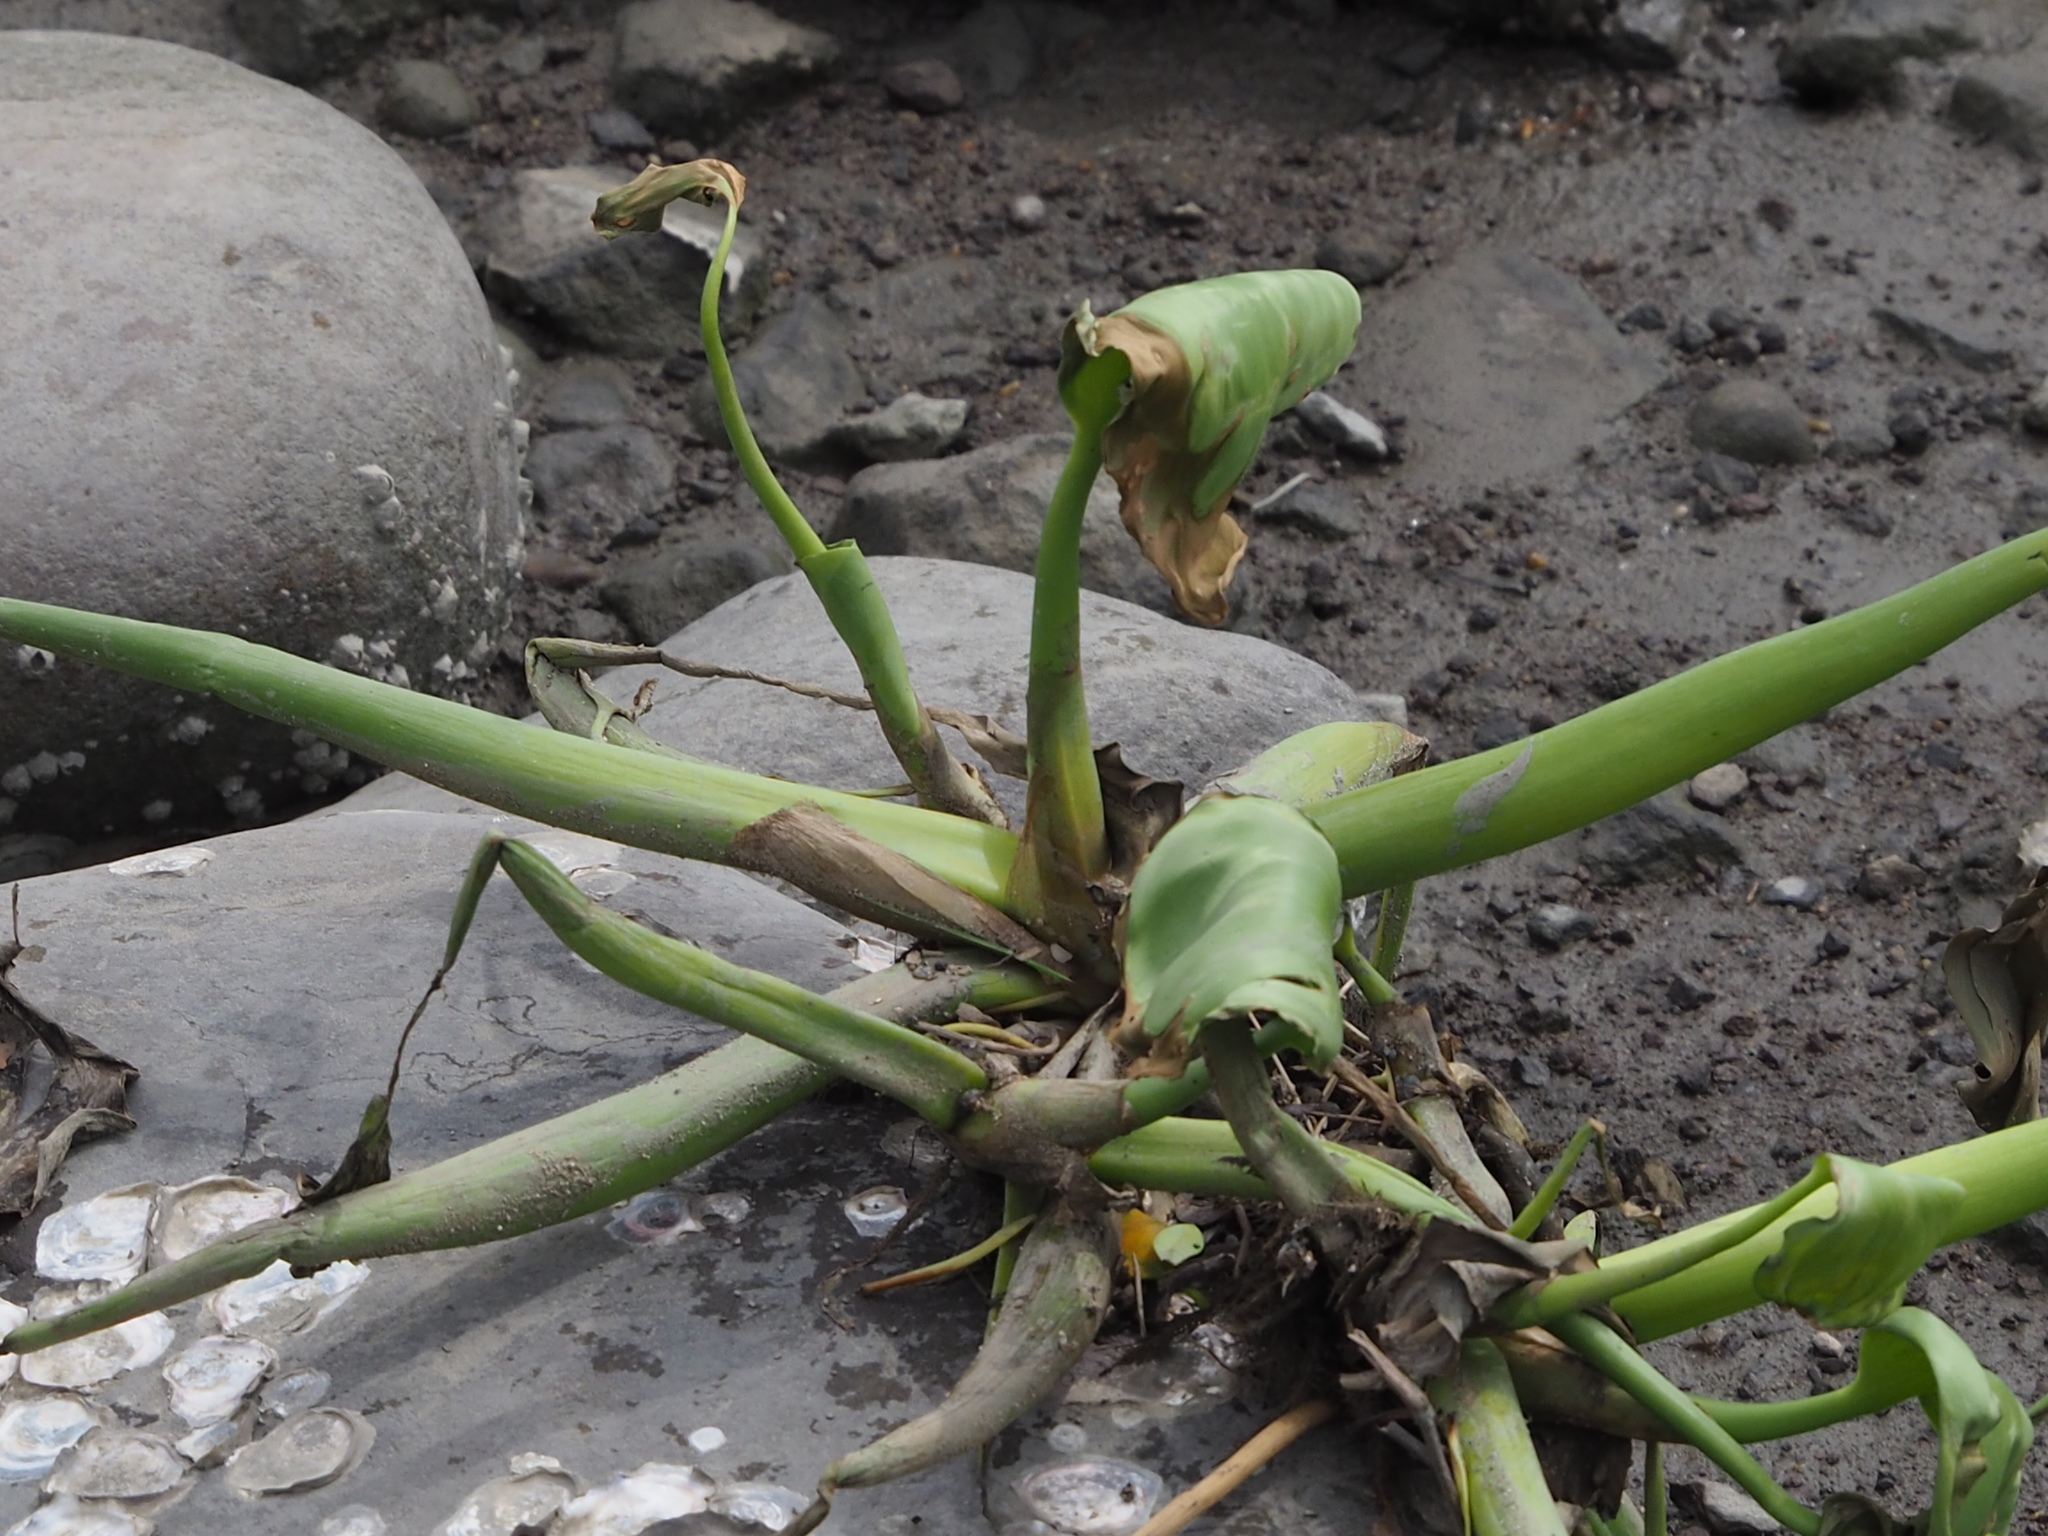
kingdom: Plantae
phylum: Tracheophyta
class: Liliopsida
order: Commelinales
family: Pontederiaceae
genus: Pontederia
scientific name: Pontederia crassipes
